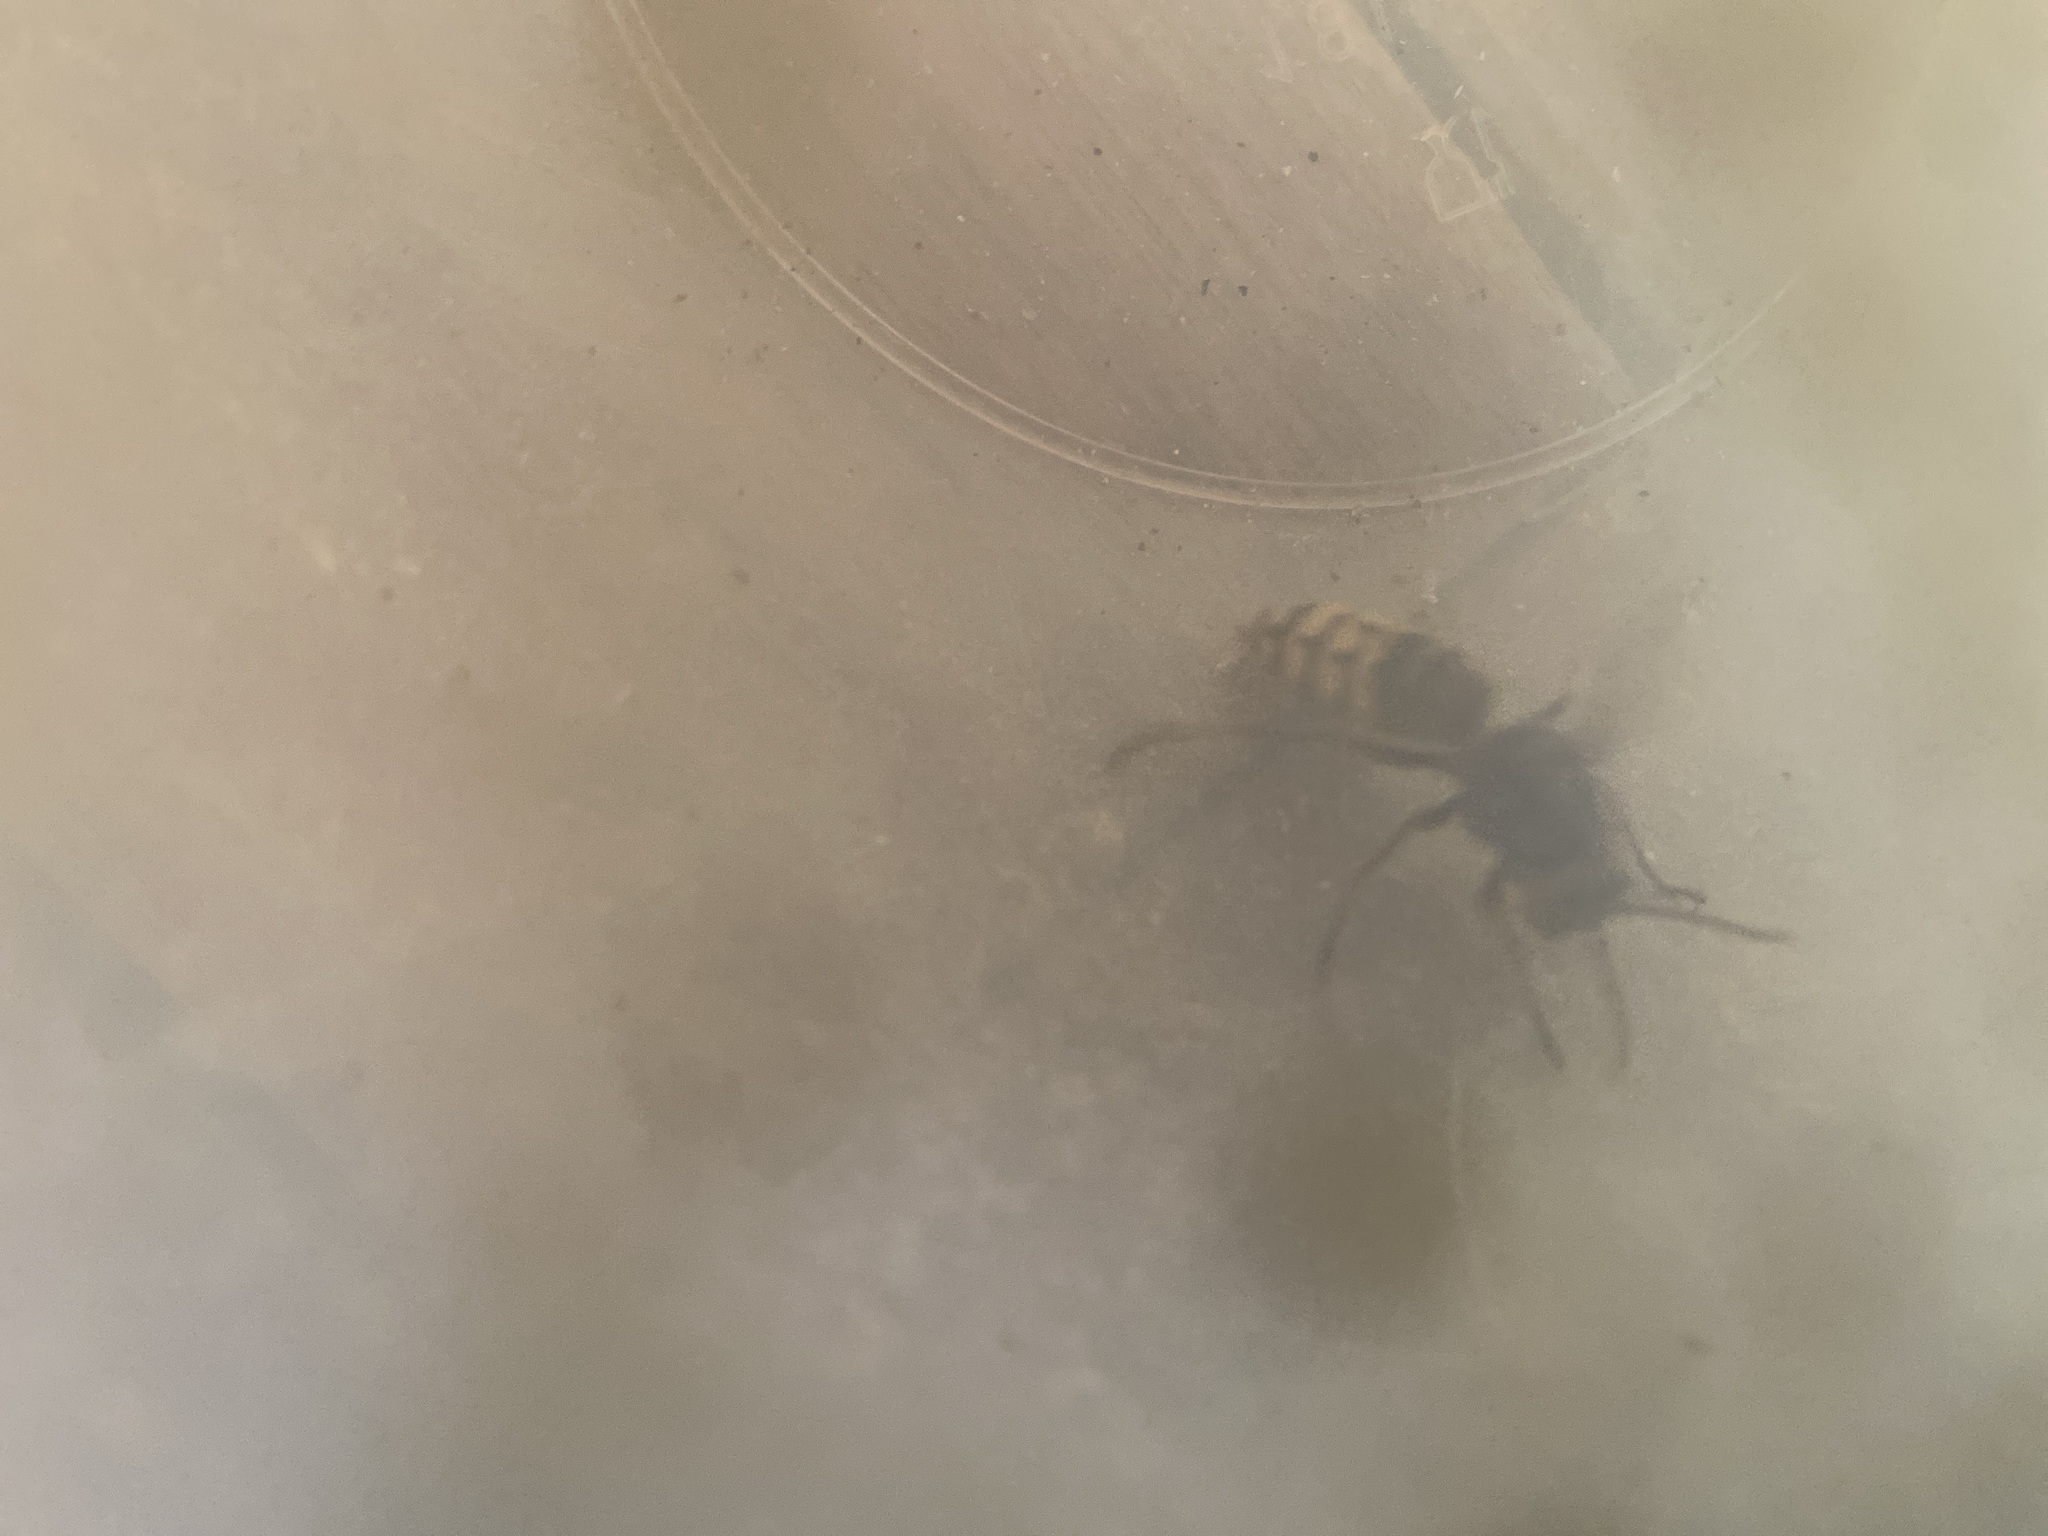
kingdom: Animalia
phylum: Arthropoda
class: Insecta
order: Hymenoptera
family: Vespidae
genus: Vespa
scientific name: Vespa crabro
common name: Hornet
